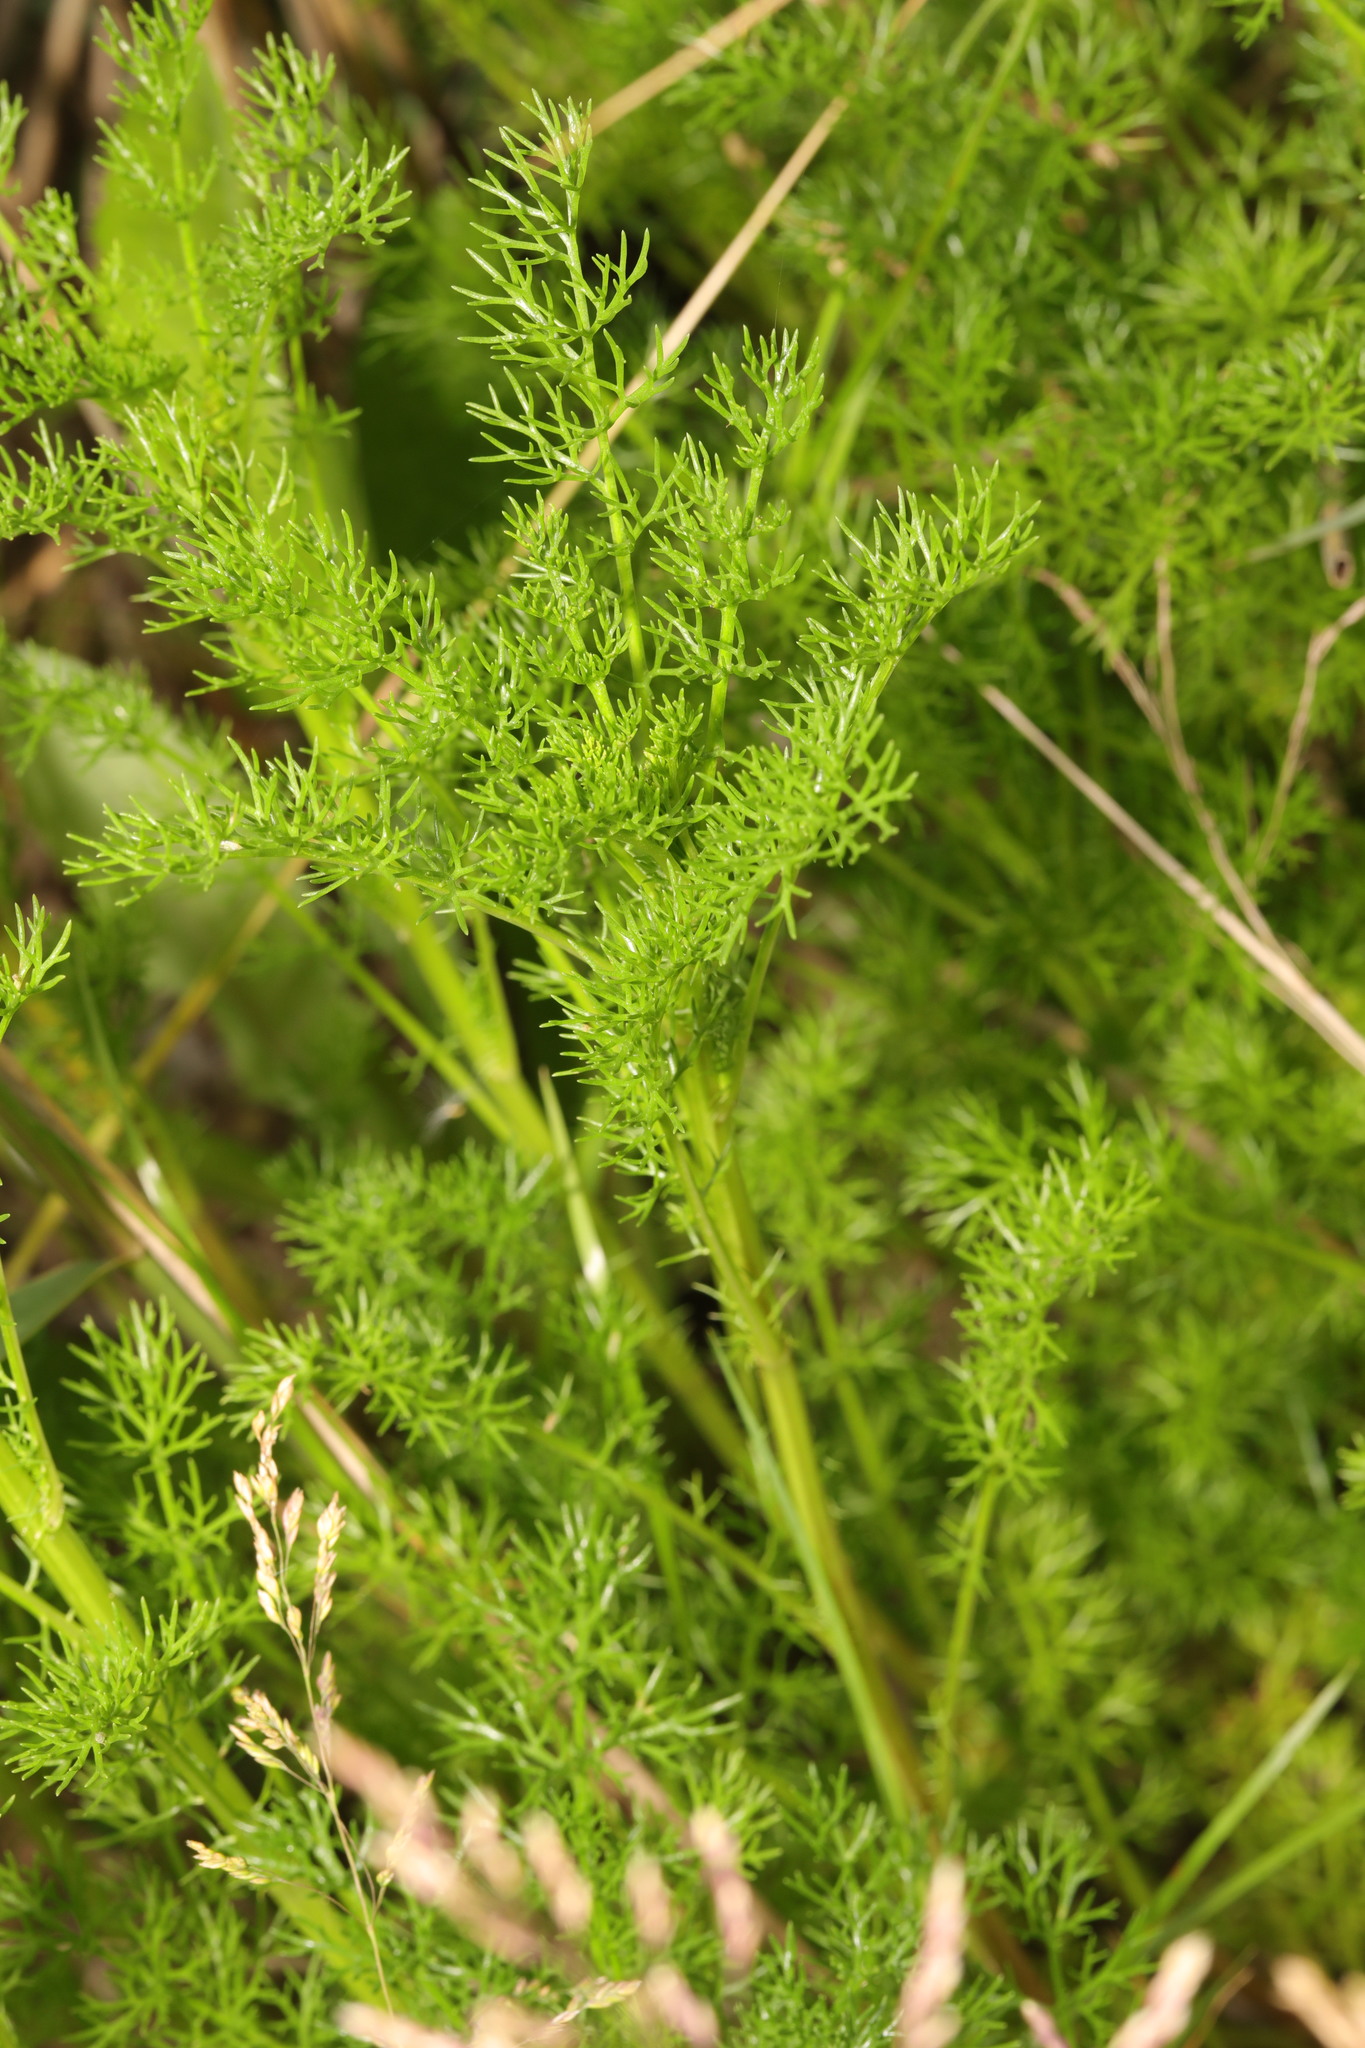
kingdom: Plantae
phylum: Tracheophyta
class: Magnoliopsida
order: Asterales
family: Asteraceae
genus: Tripleurospermum
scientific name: Tripleurospermum maritimum
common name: Sea mayweed
